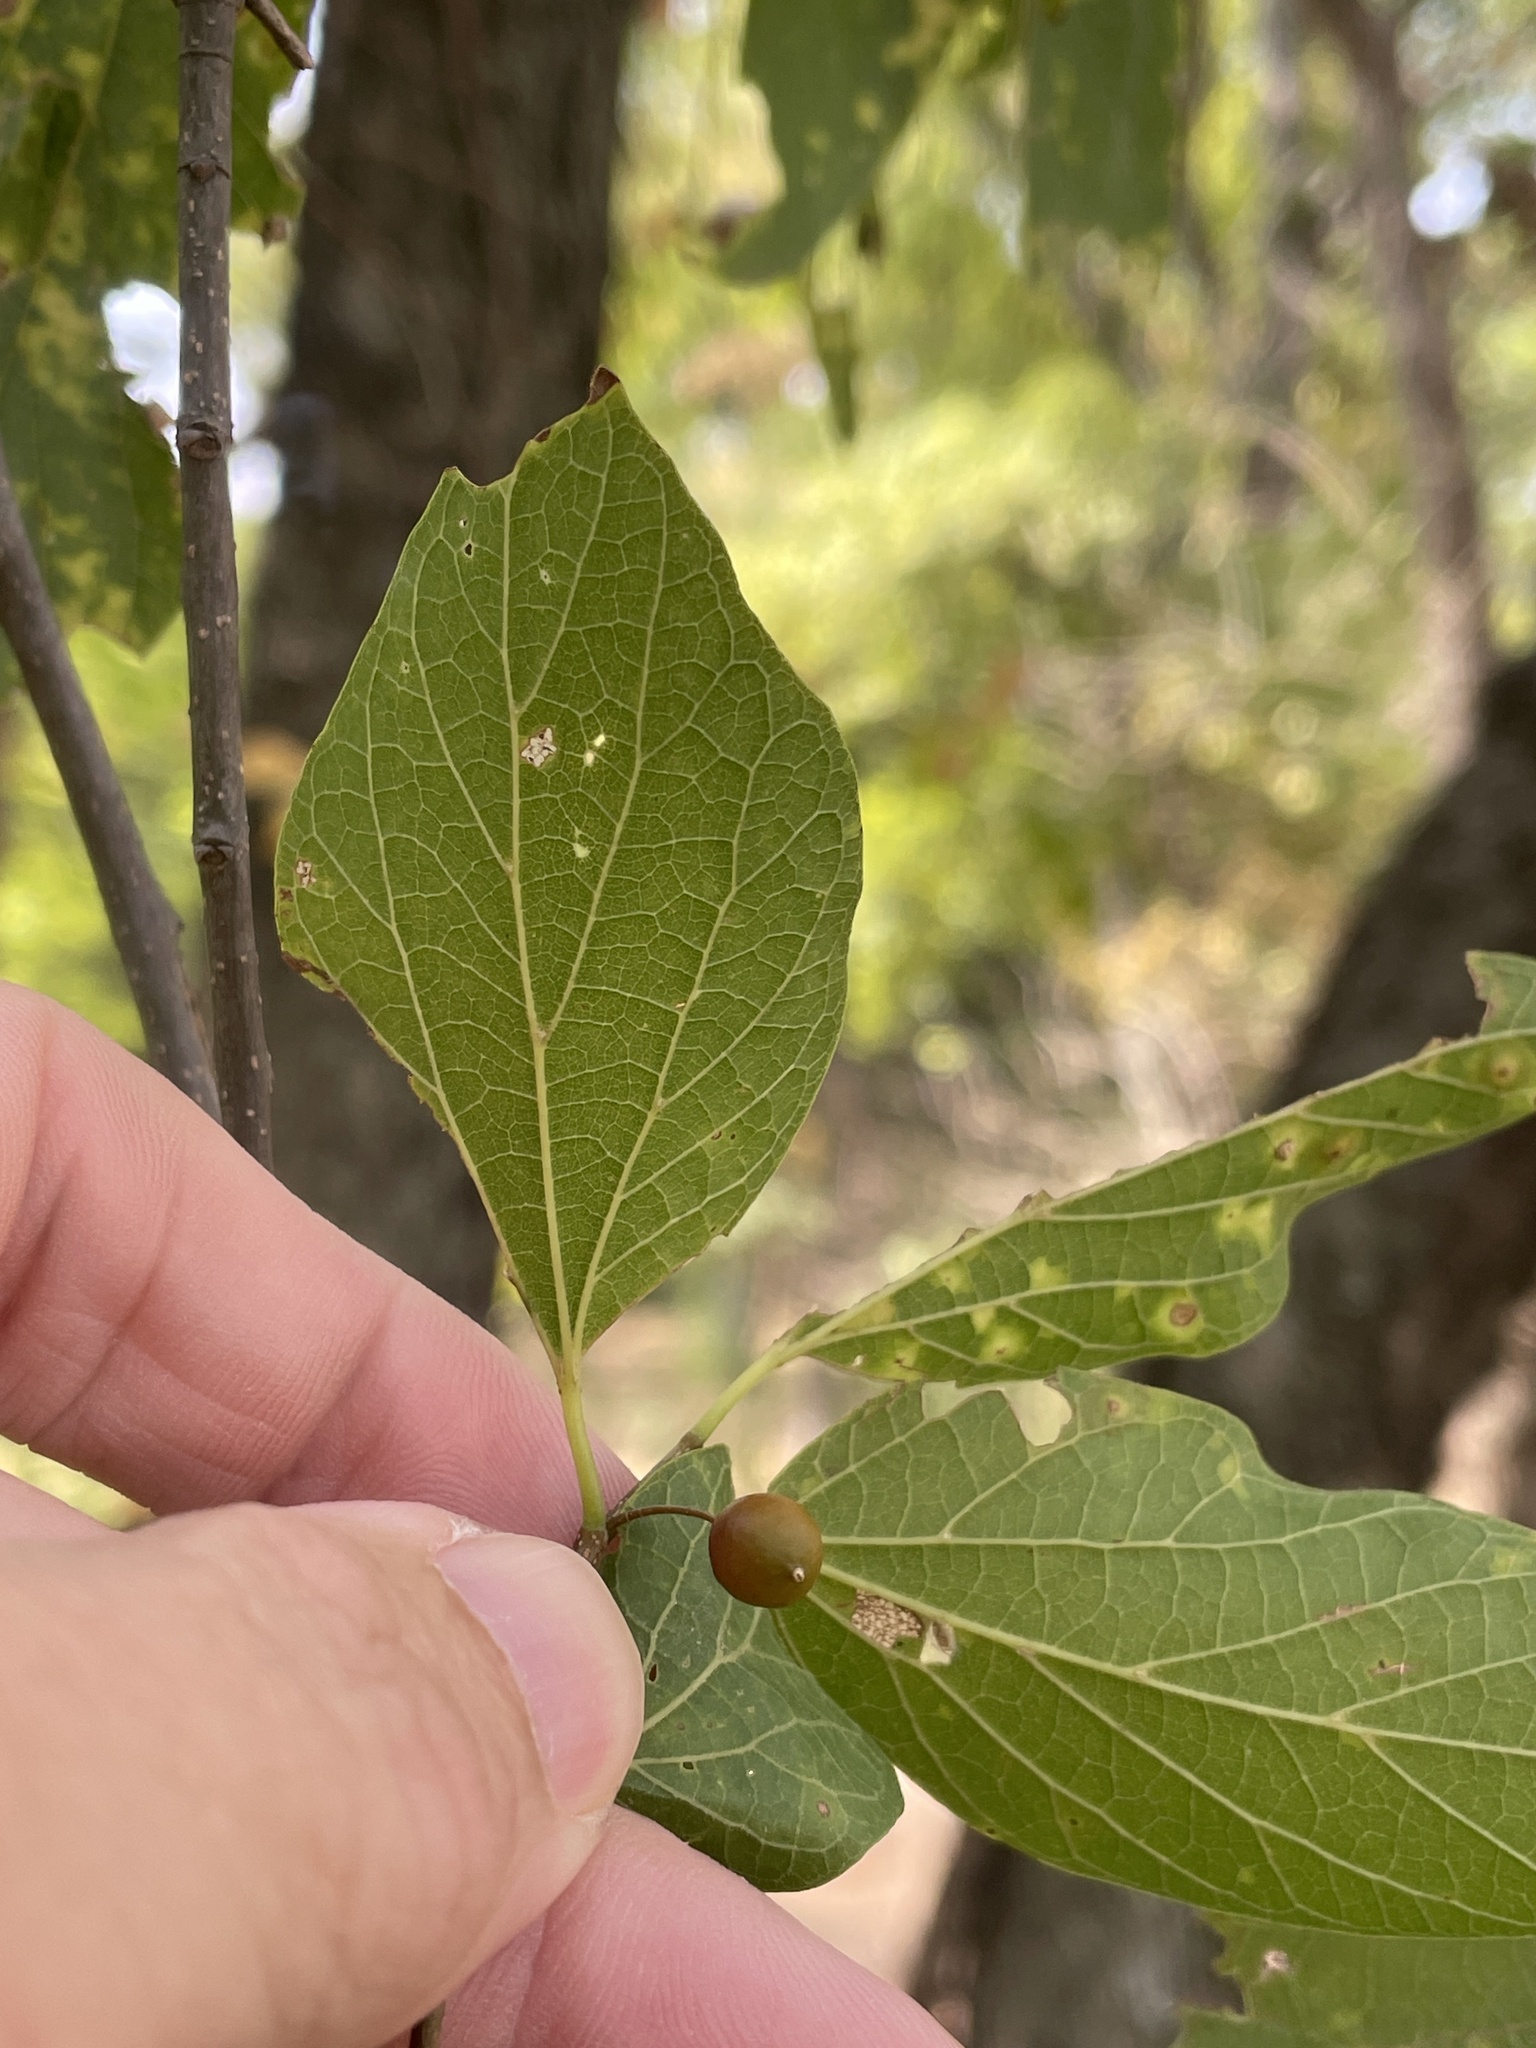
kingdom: Plantae
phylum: Tracheophyta
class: Magnoliopsida
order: Rosales
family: Cannabaceae
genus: Celtis
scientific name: Celtis laevigata
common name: Sugarberry
